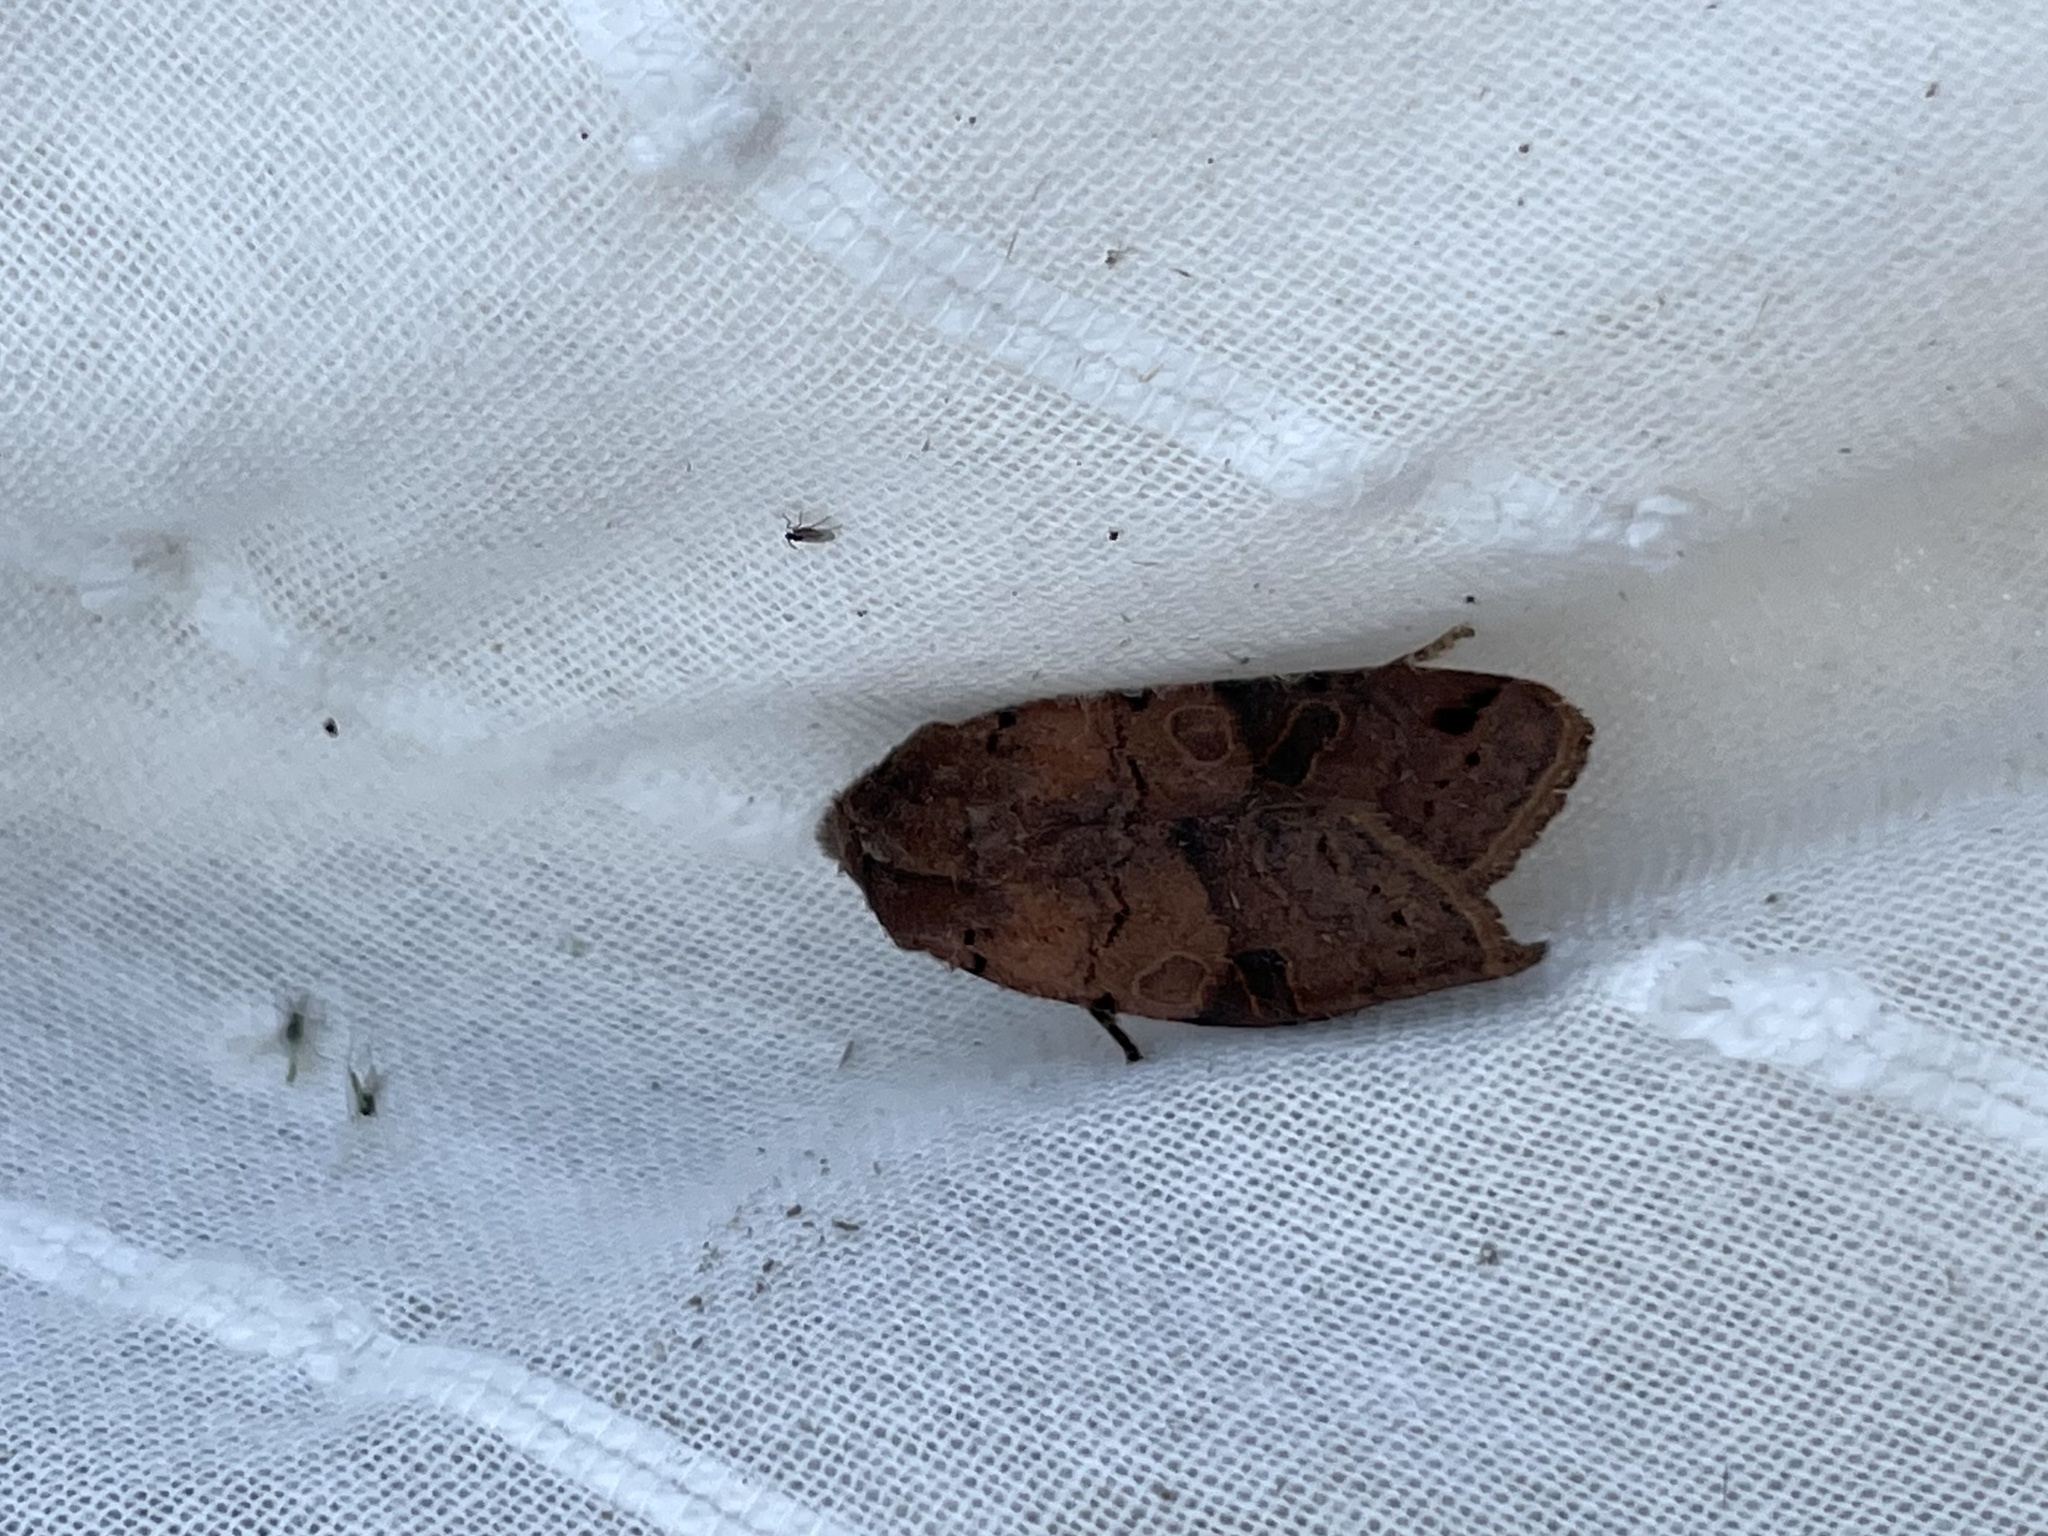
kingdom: Animalia
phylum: Arthropoda
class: Insecta
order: Lepidoptera
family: Noctuidae
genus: Agrochola
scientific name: Agrochola litura
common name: Brown-spot pinion
